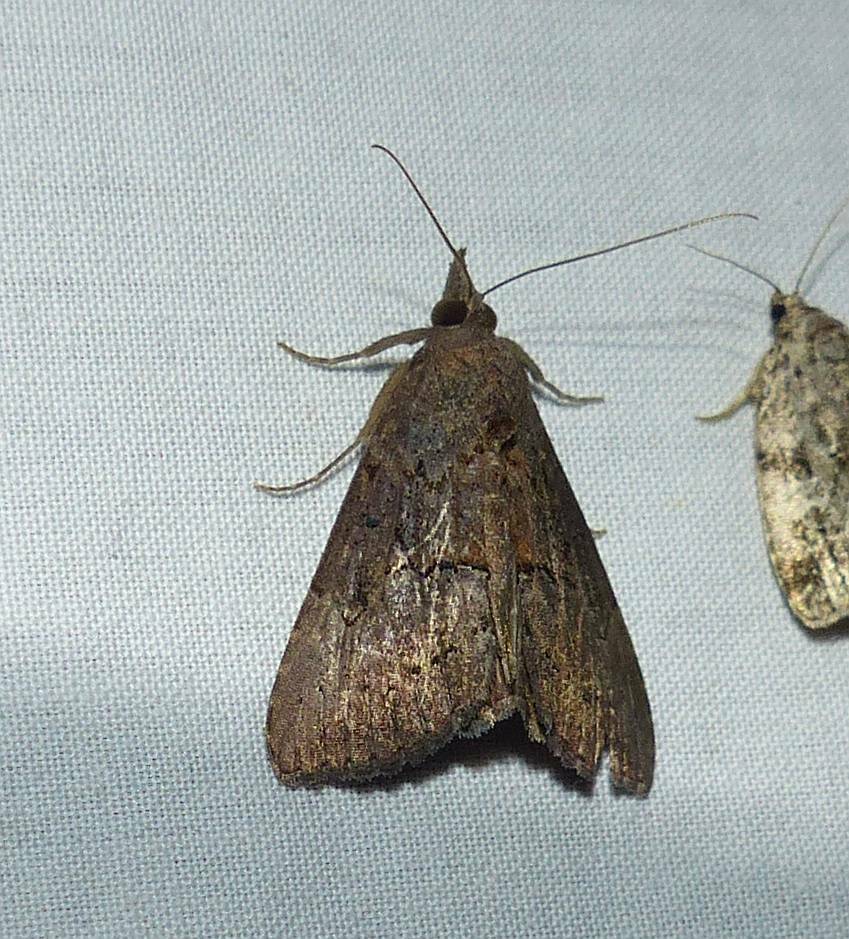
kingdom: Animalia
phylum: Arthropoda
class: Insecta
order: Lepidoptera
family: Erebidae
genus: Hypena
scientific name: Hypena scabra
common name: Green cloverworm
